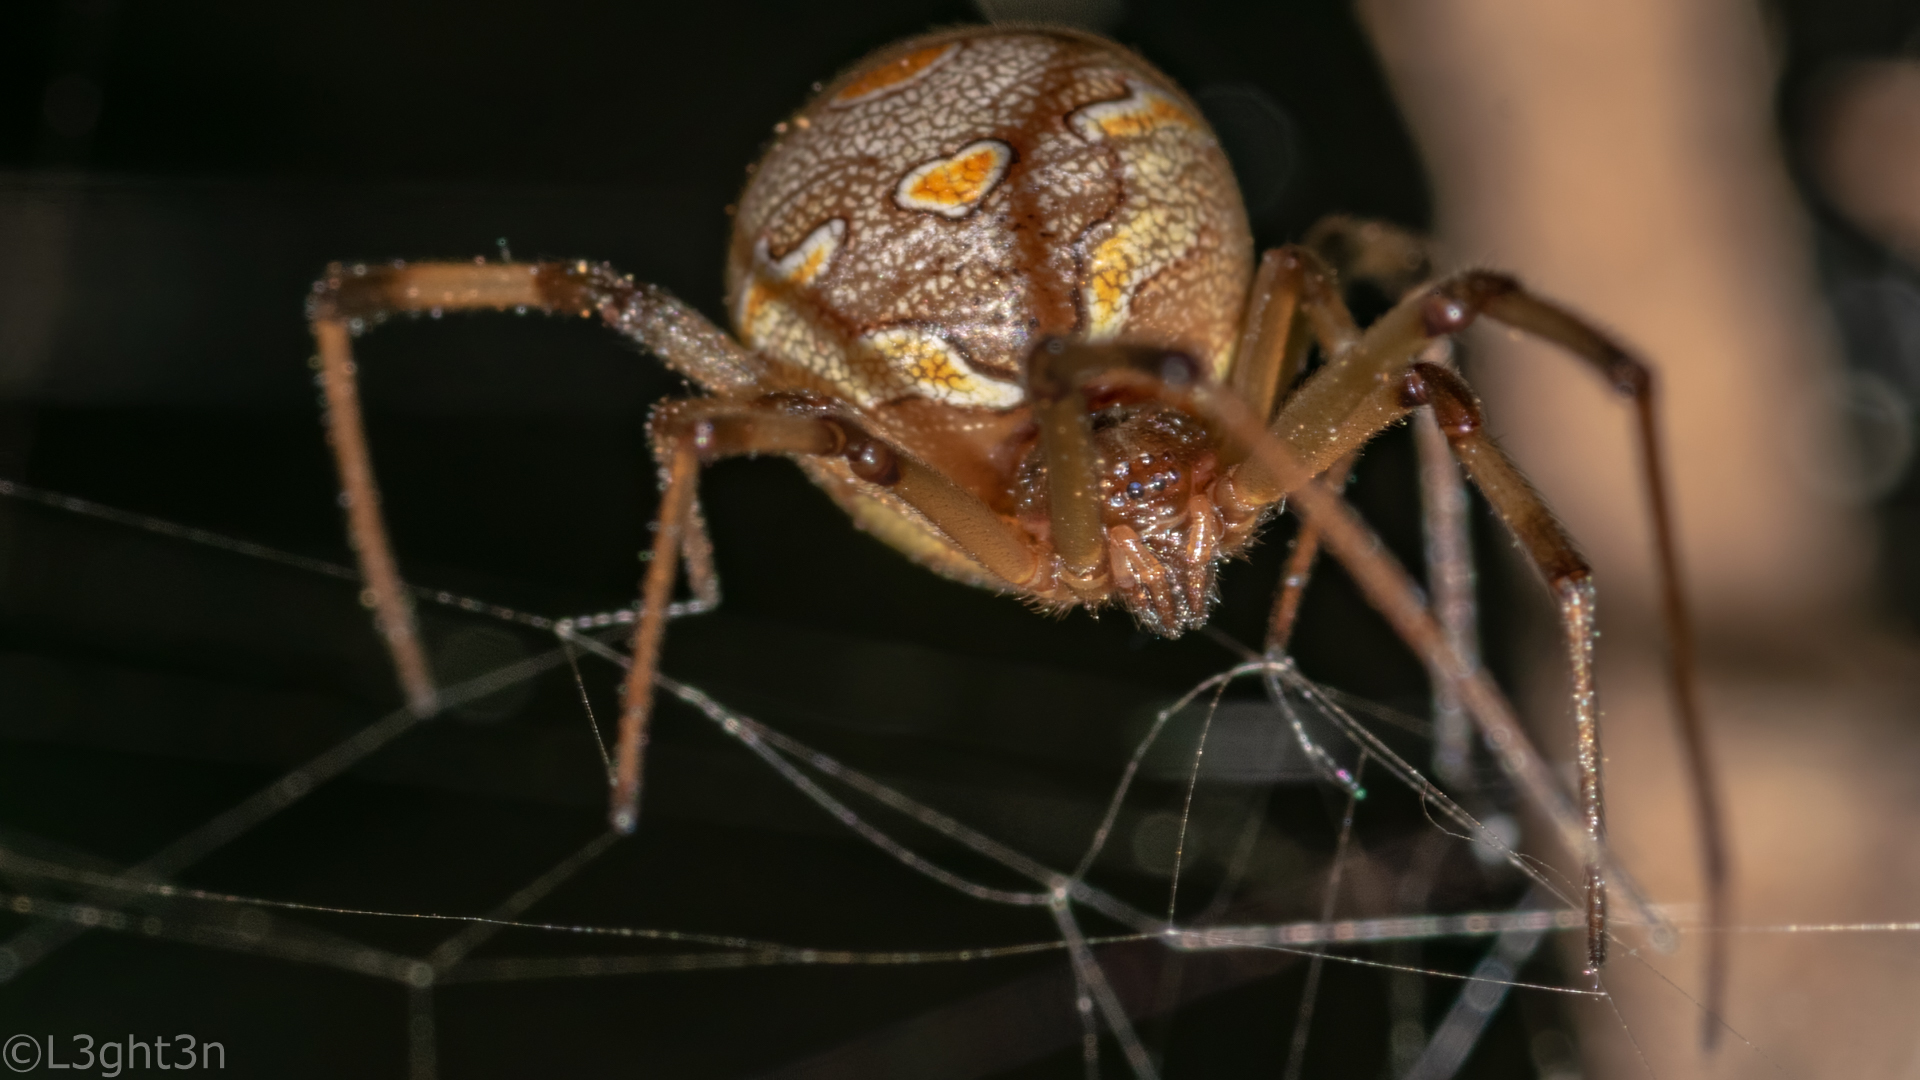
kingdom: Animalia
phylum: Arthropoda
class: Arachnida
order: Araneae
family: Theridiidae
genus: Latrodectus
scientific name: Latrodectus geometricus
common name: Brown widow spider
